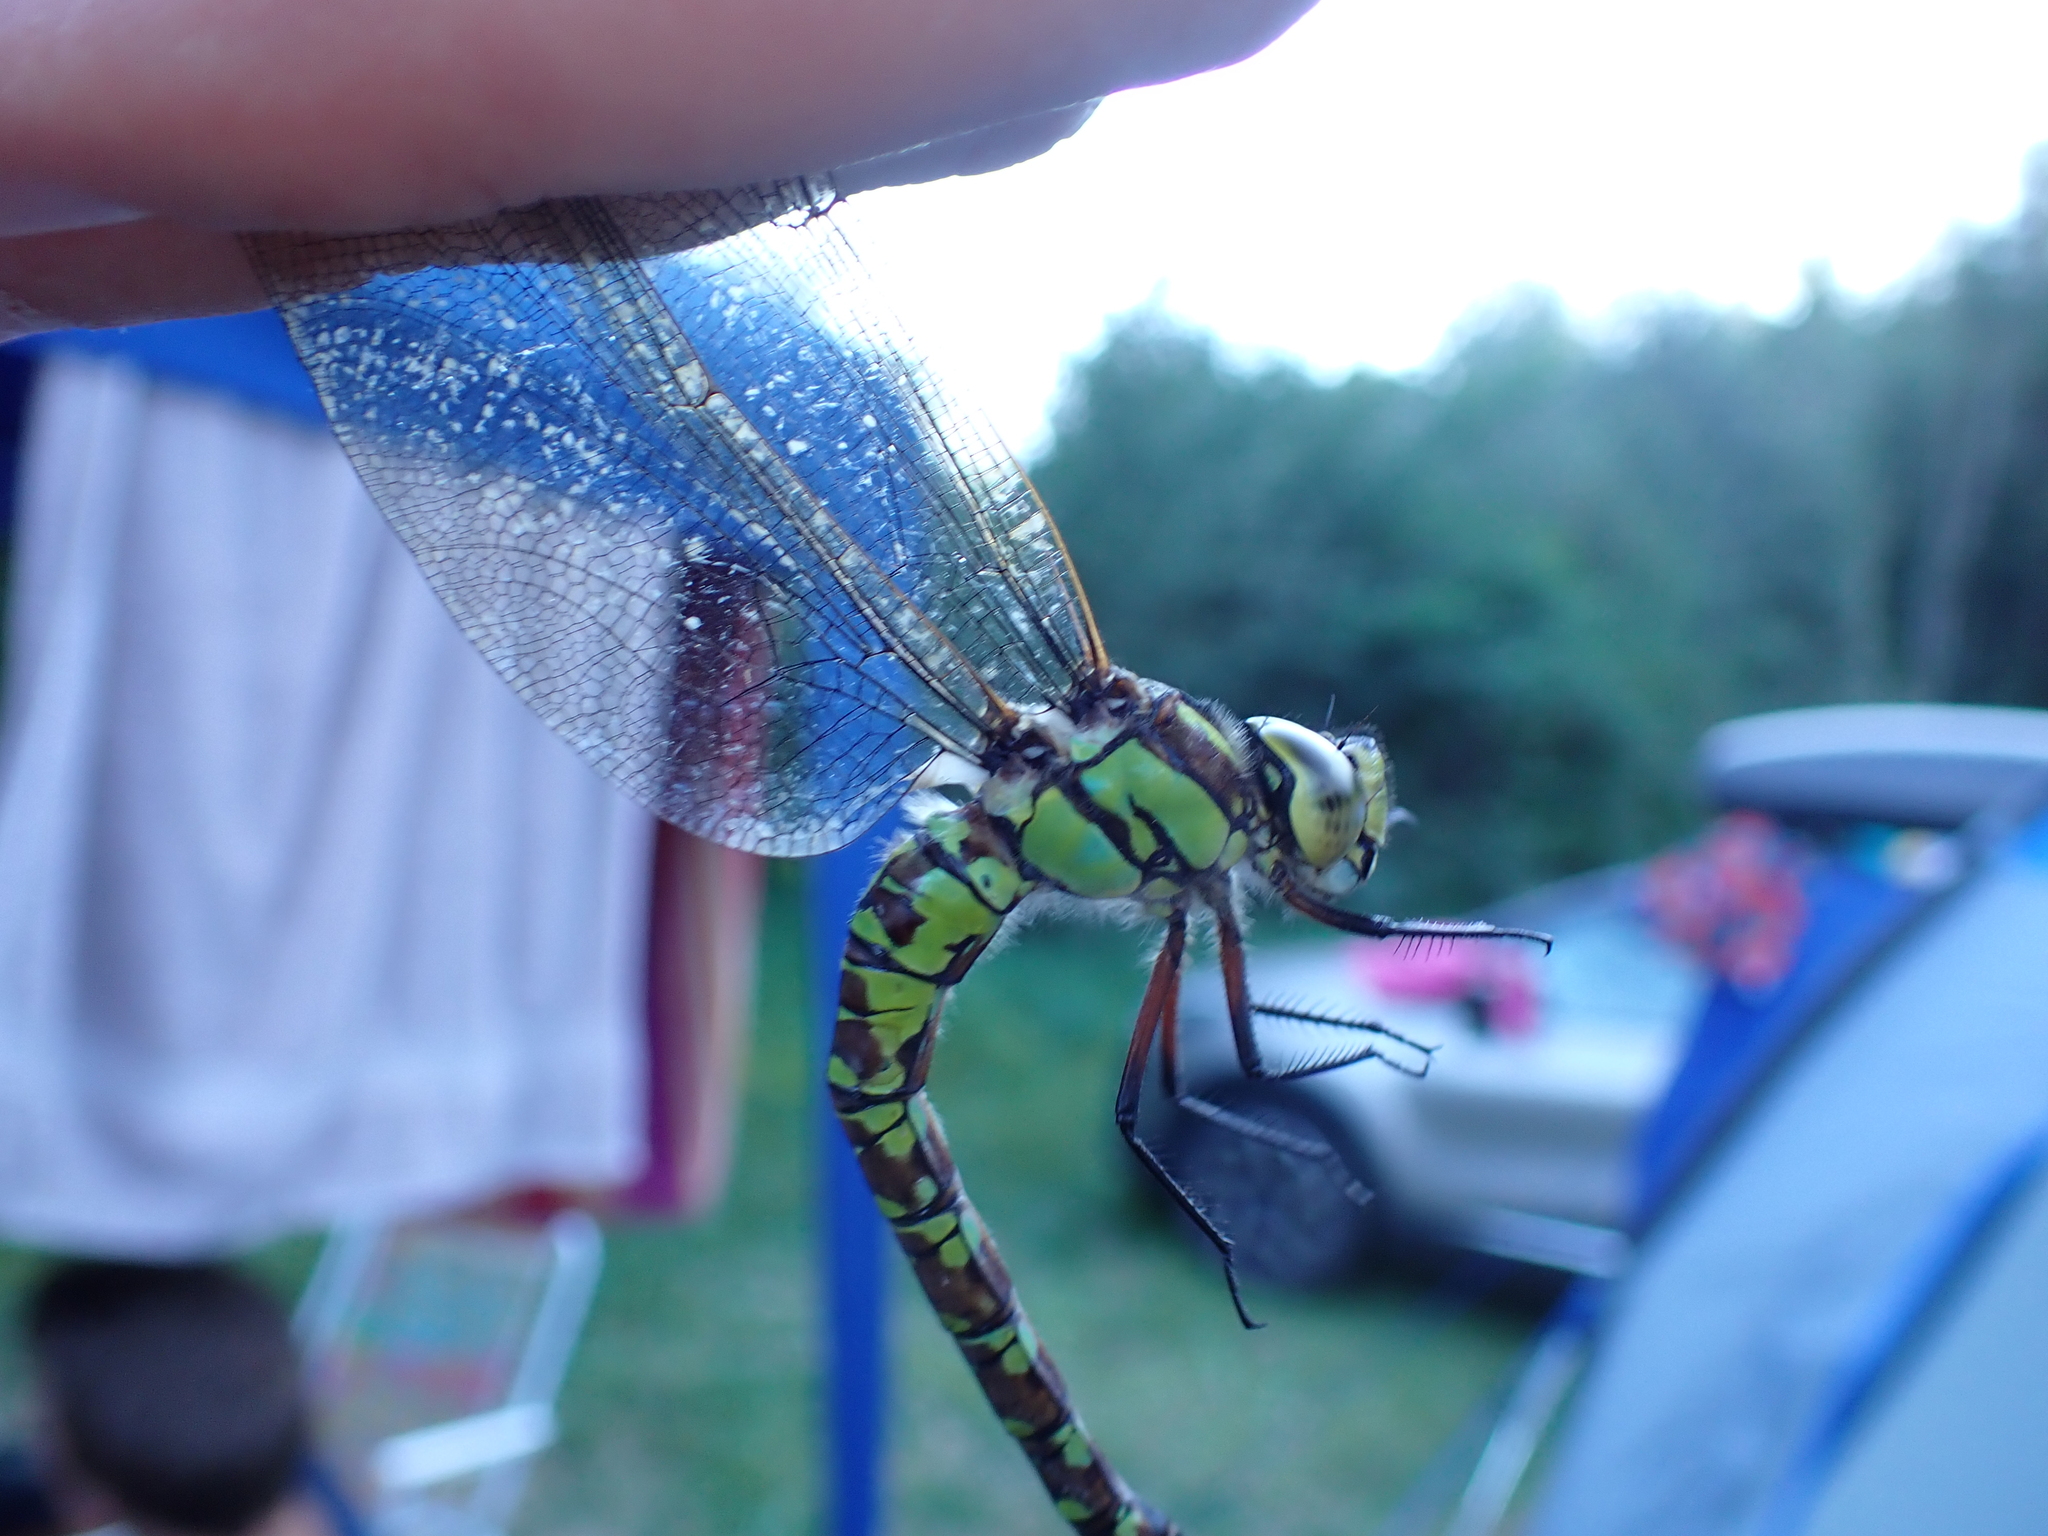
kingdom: Animalia
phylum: Arthropoda
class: Insecta
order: Odonata
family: Aeshnidae
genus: Aeshna
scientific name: Aeshna cyanea
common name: Southern hawker
